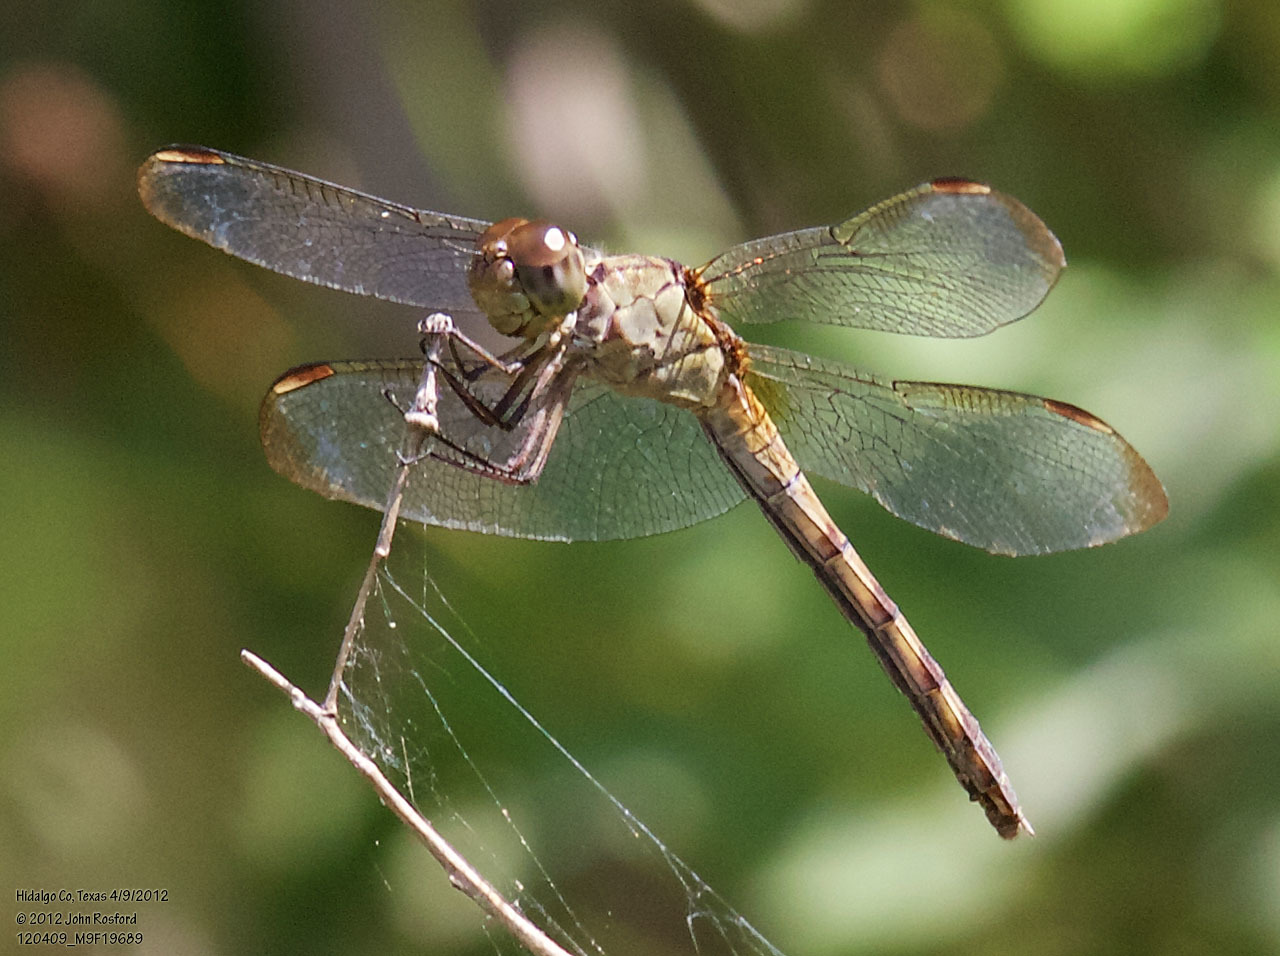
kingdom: Animalia
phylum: Arthropoda
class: Insecta
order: Odonata
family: Libellulidae
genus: Erythrodiplax
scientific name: Erythrodiplax umbrata
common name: Band-winged dragonlet
